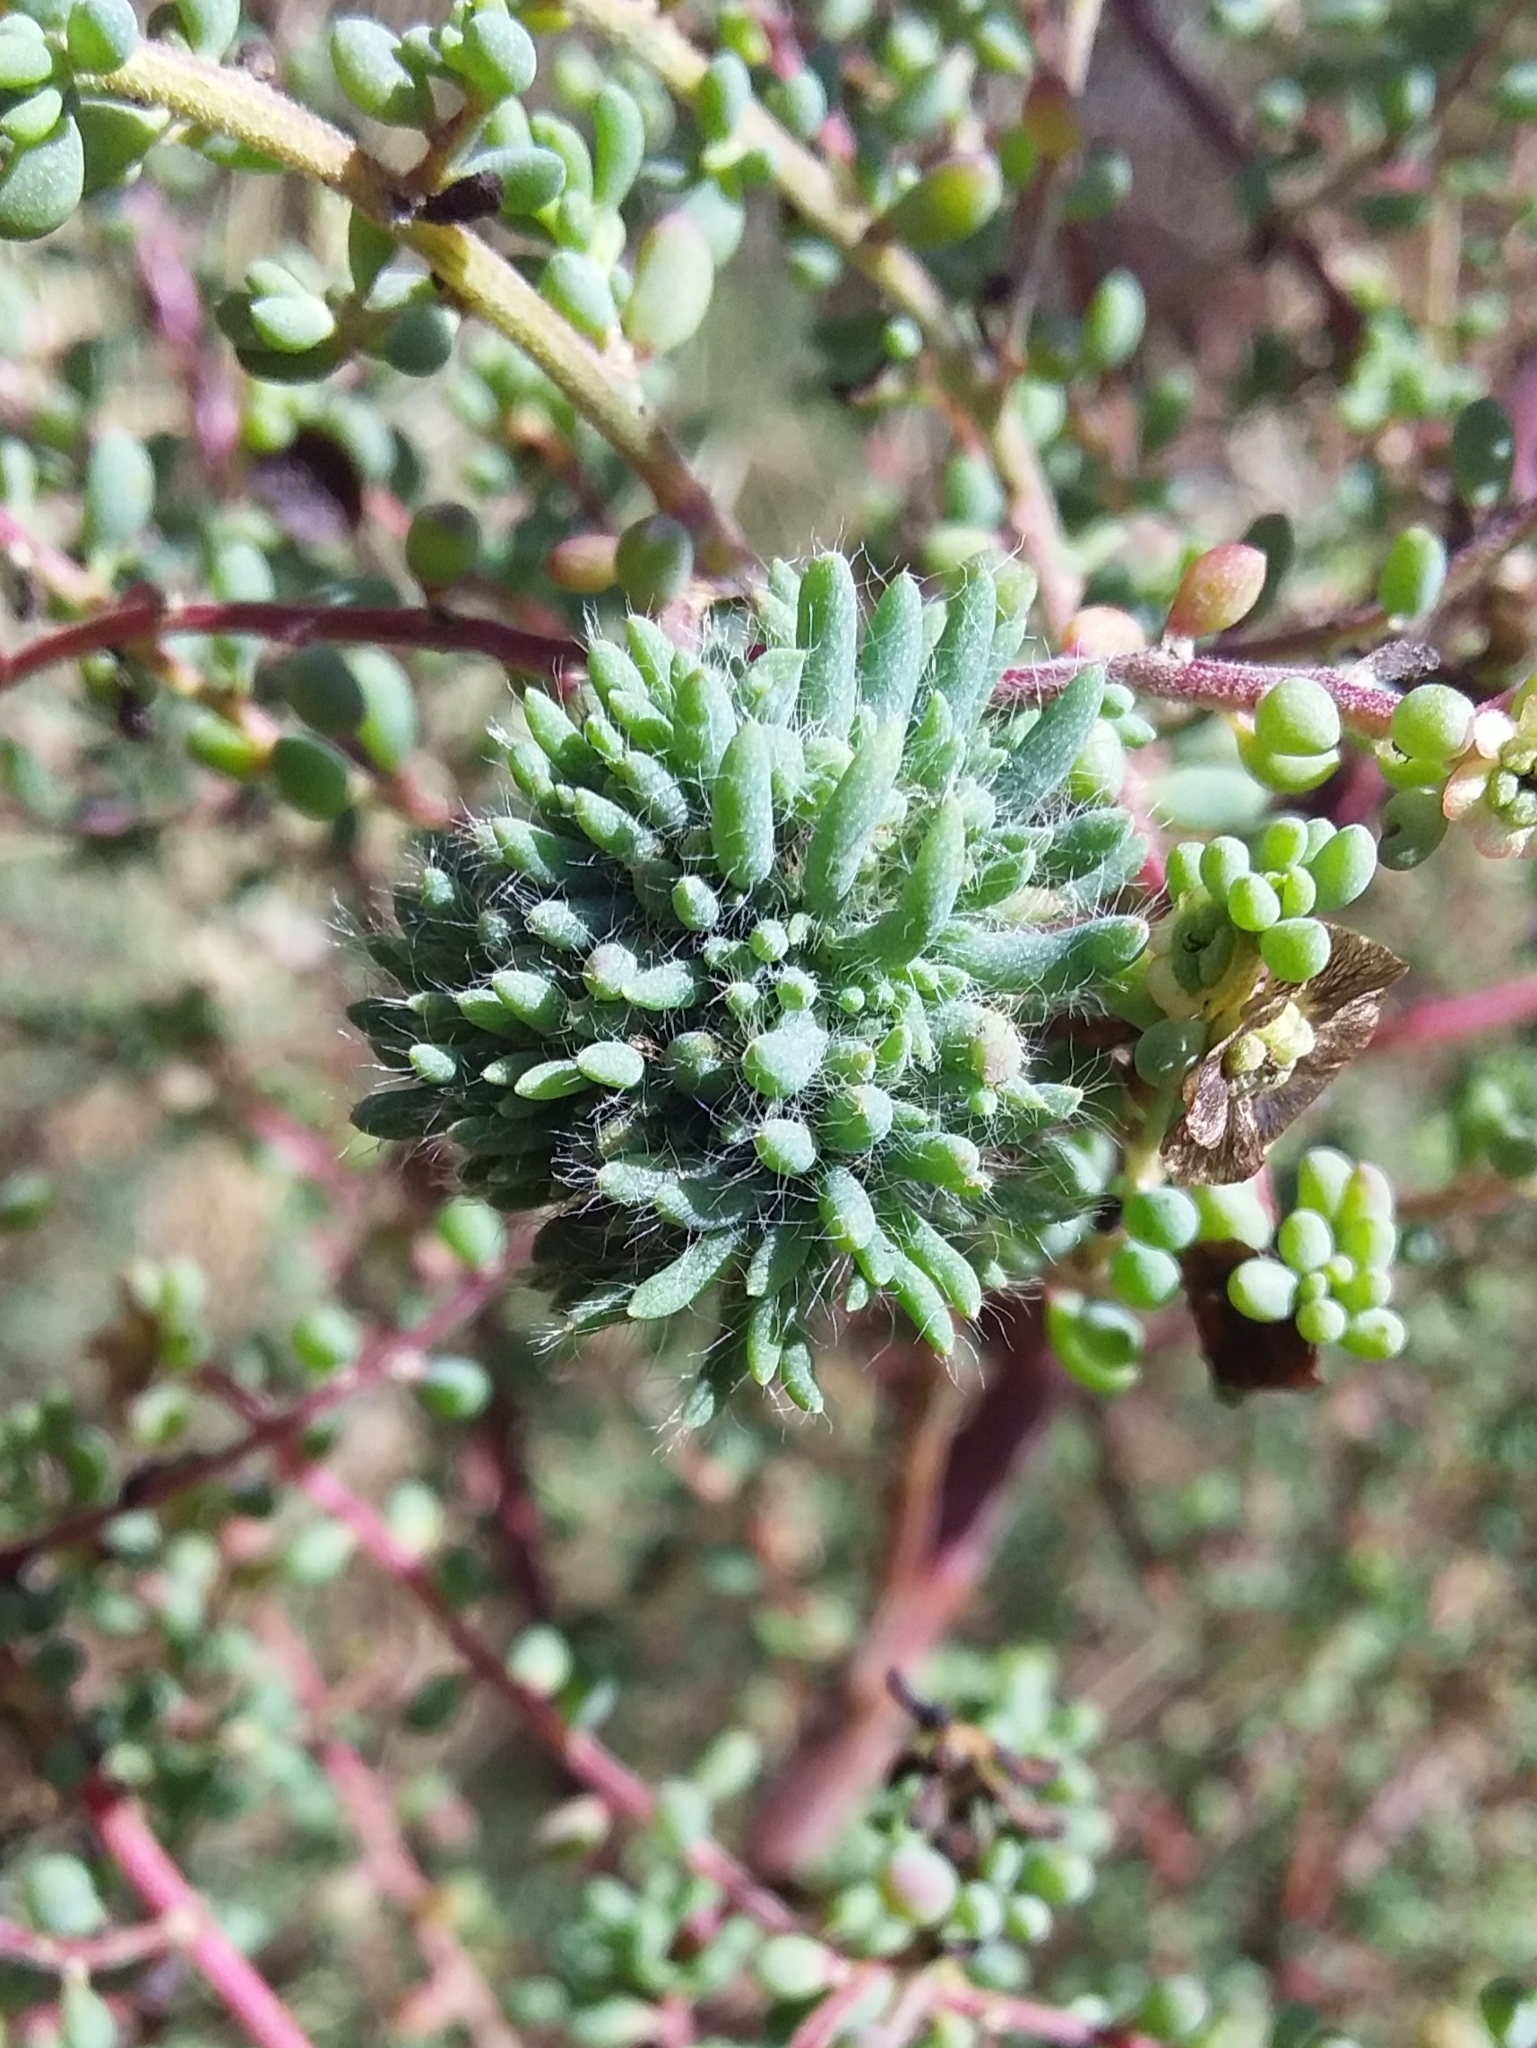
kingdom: Animalia
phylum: Arthropoda
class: Insecta
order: Diptera
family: Cecidomyiidae
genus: Dactylasioptera
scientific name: Dactylasioptera milnae
